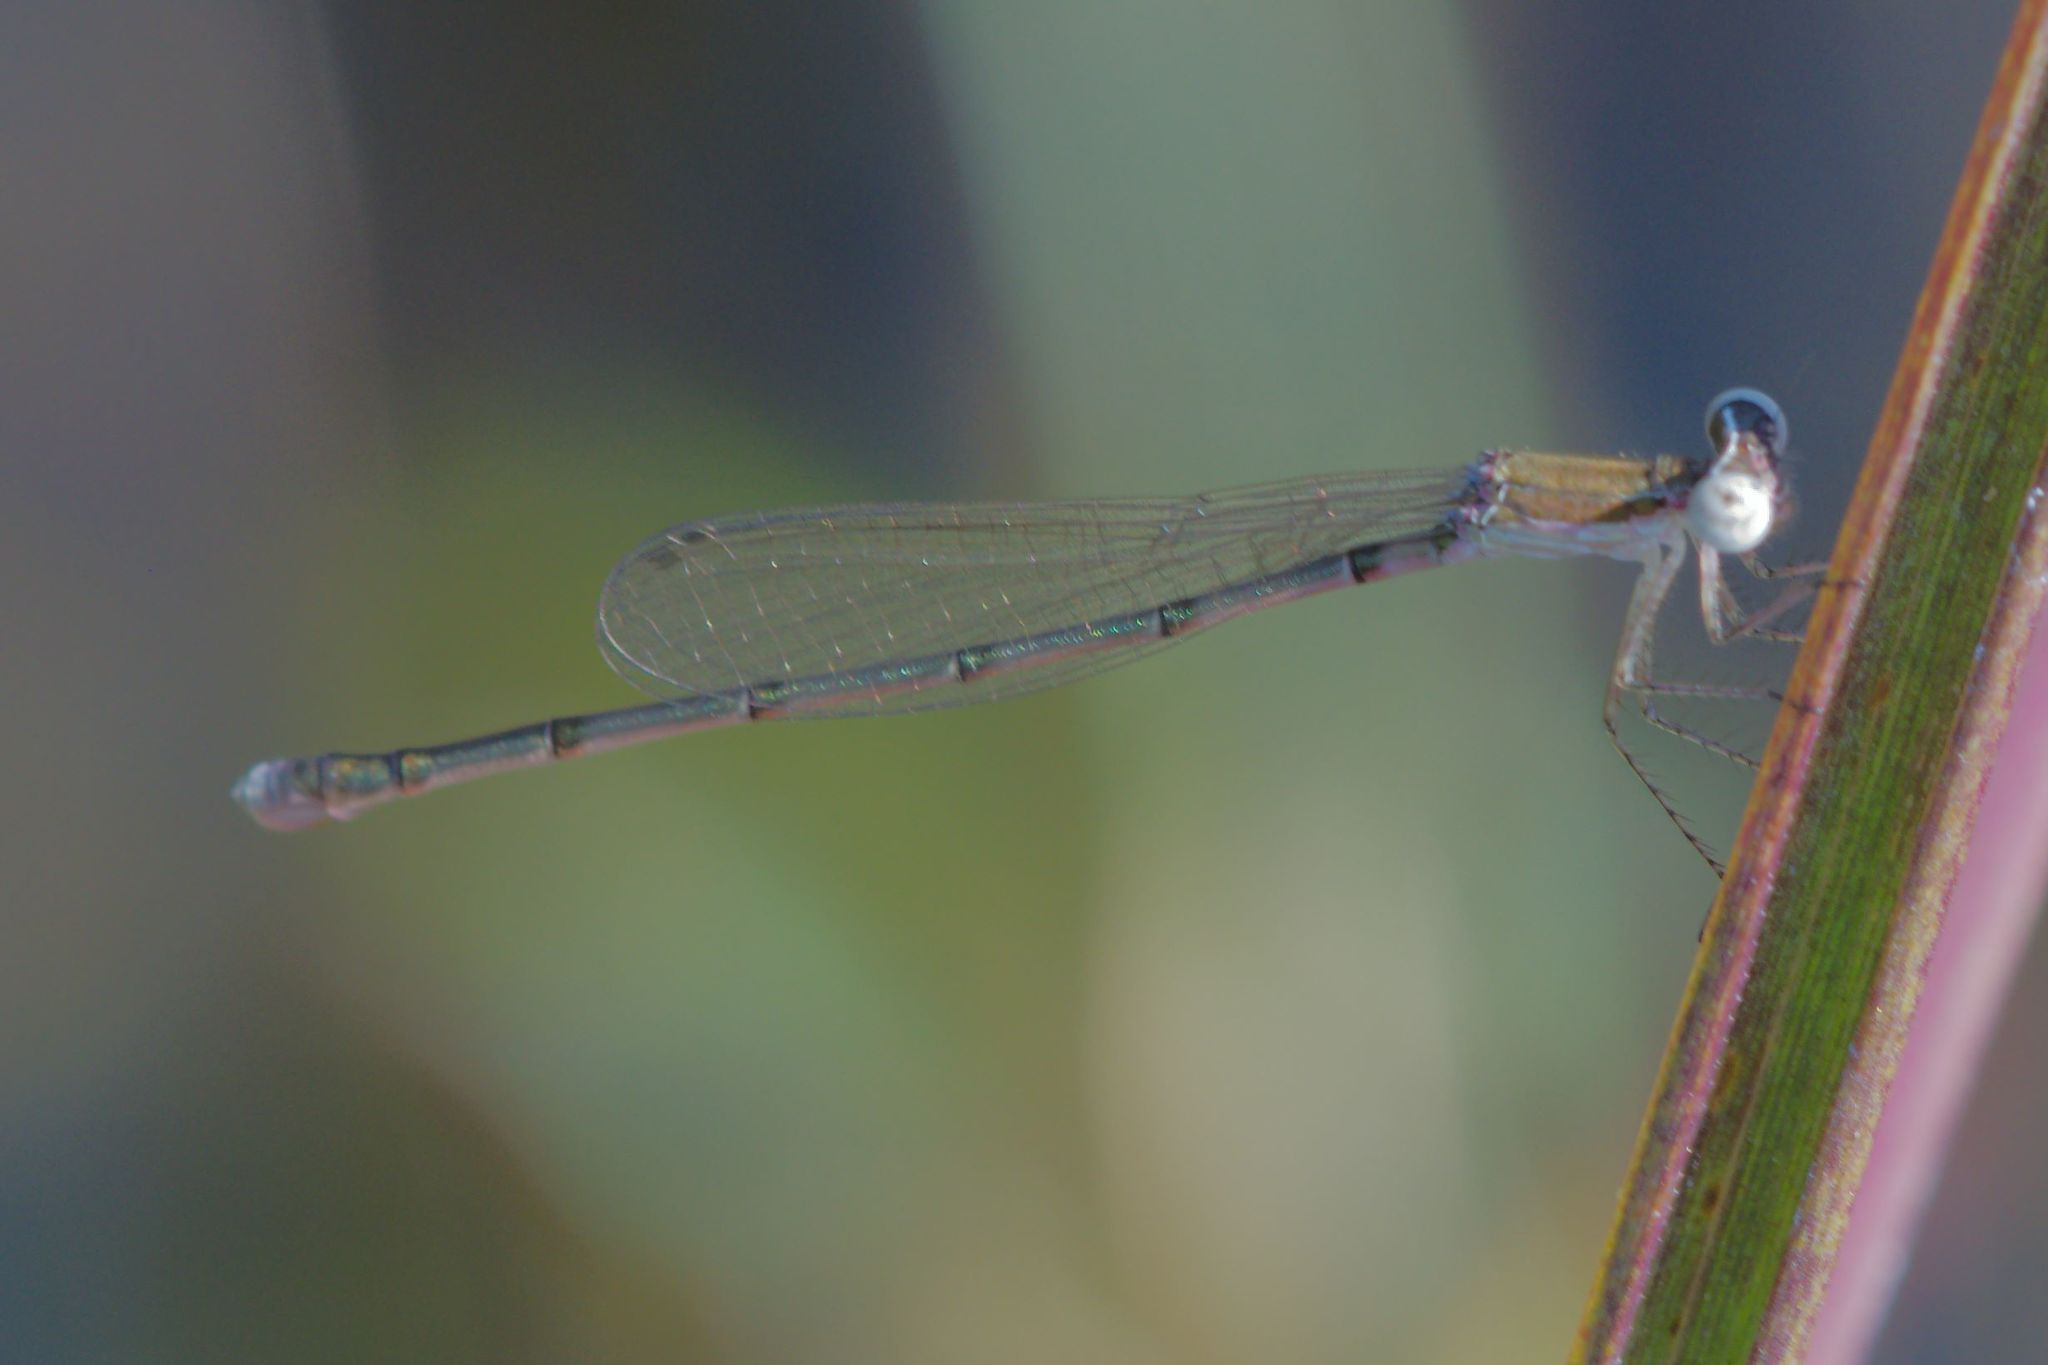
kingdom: Animalia
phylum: Arthropoda
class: Insecta
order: Odonata
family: Coenagrionidae
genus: Nehalennia
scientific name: Nehalennia integricollis
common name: Southern sprite
